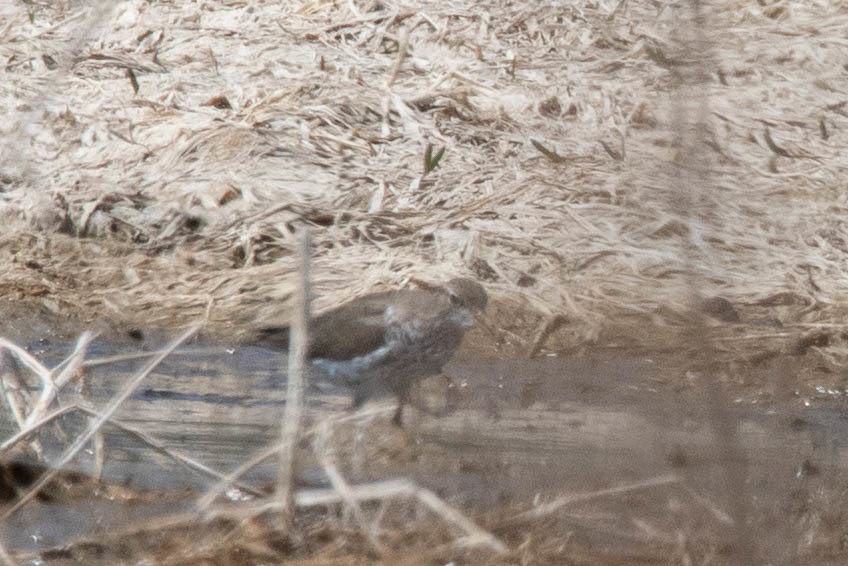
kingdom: Animalia
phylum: Chordata
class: Aves
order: Charadriiformes
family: Scolopacidae
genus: Actitis
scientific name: Actitis macularius
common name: Spotted sandpiper
